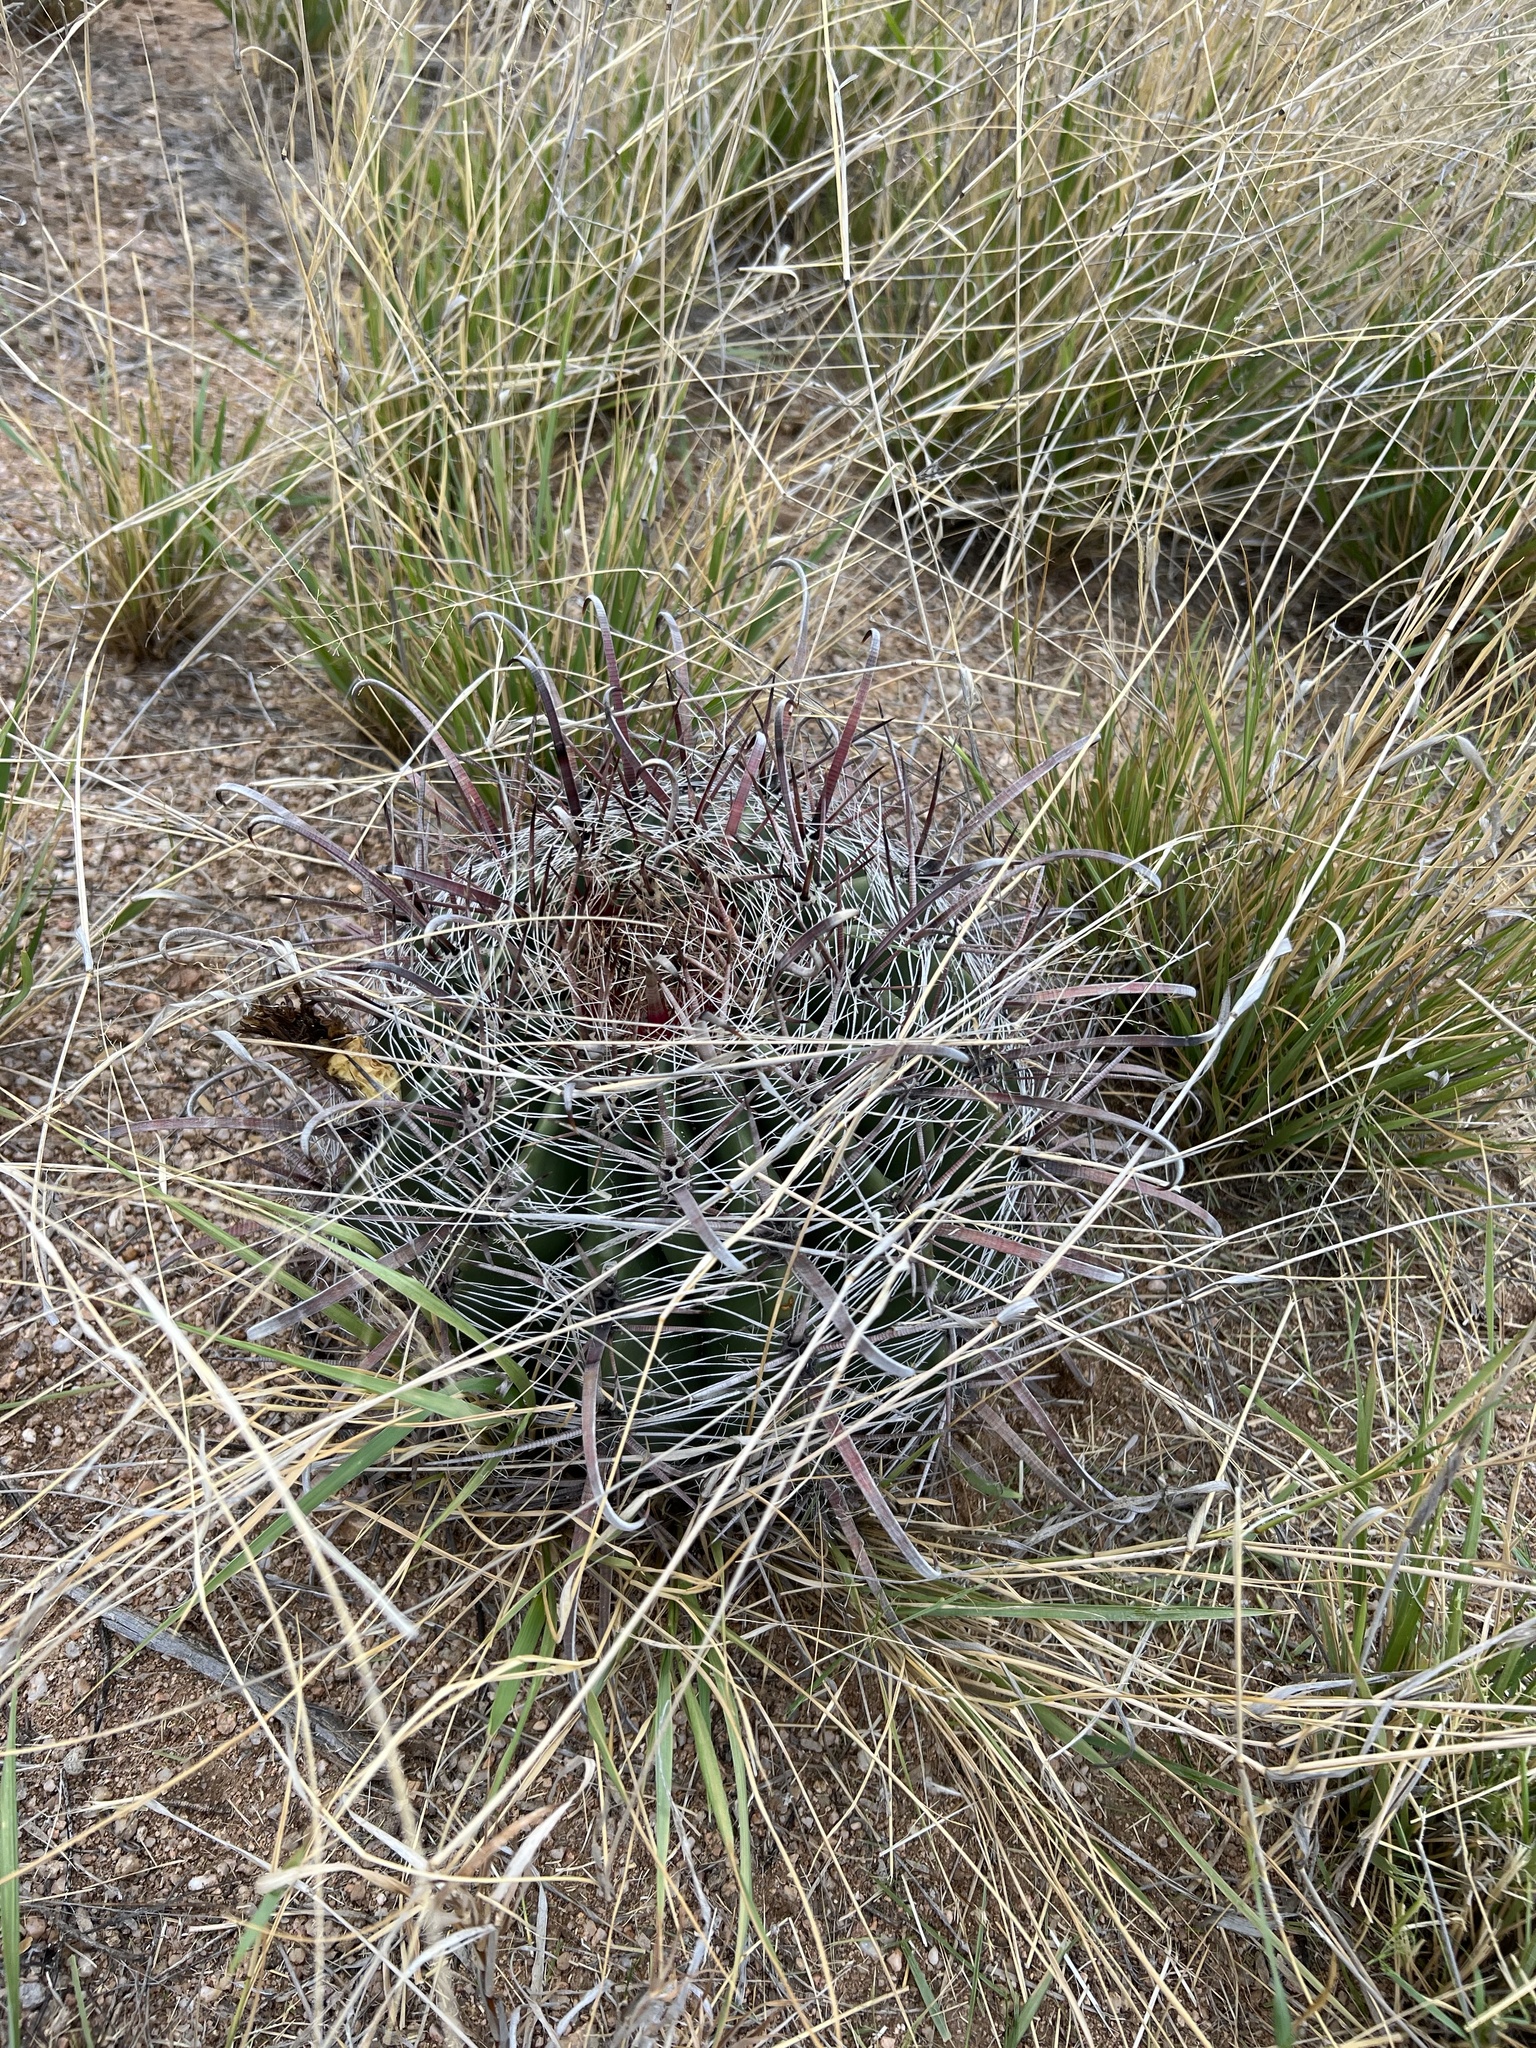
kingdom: Plantae
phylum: Tracheophyta
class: Magnoliopsida
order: Caryophyllales
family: Cactaceae
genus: Ferocactus
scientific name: Ferocactus wislizeni
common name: Candy barrel cactus
